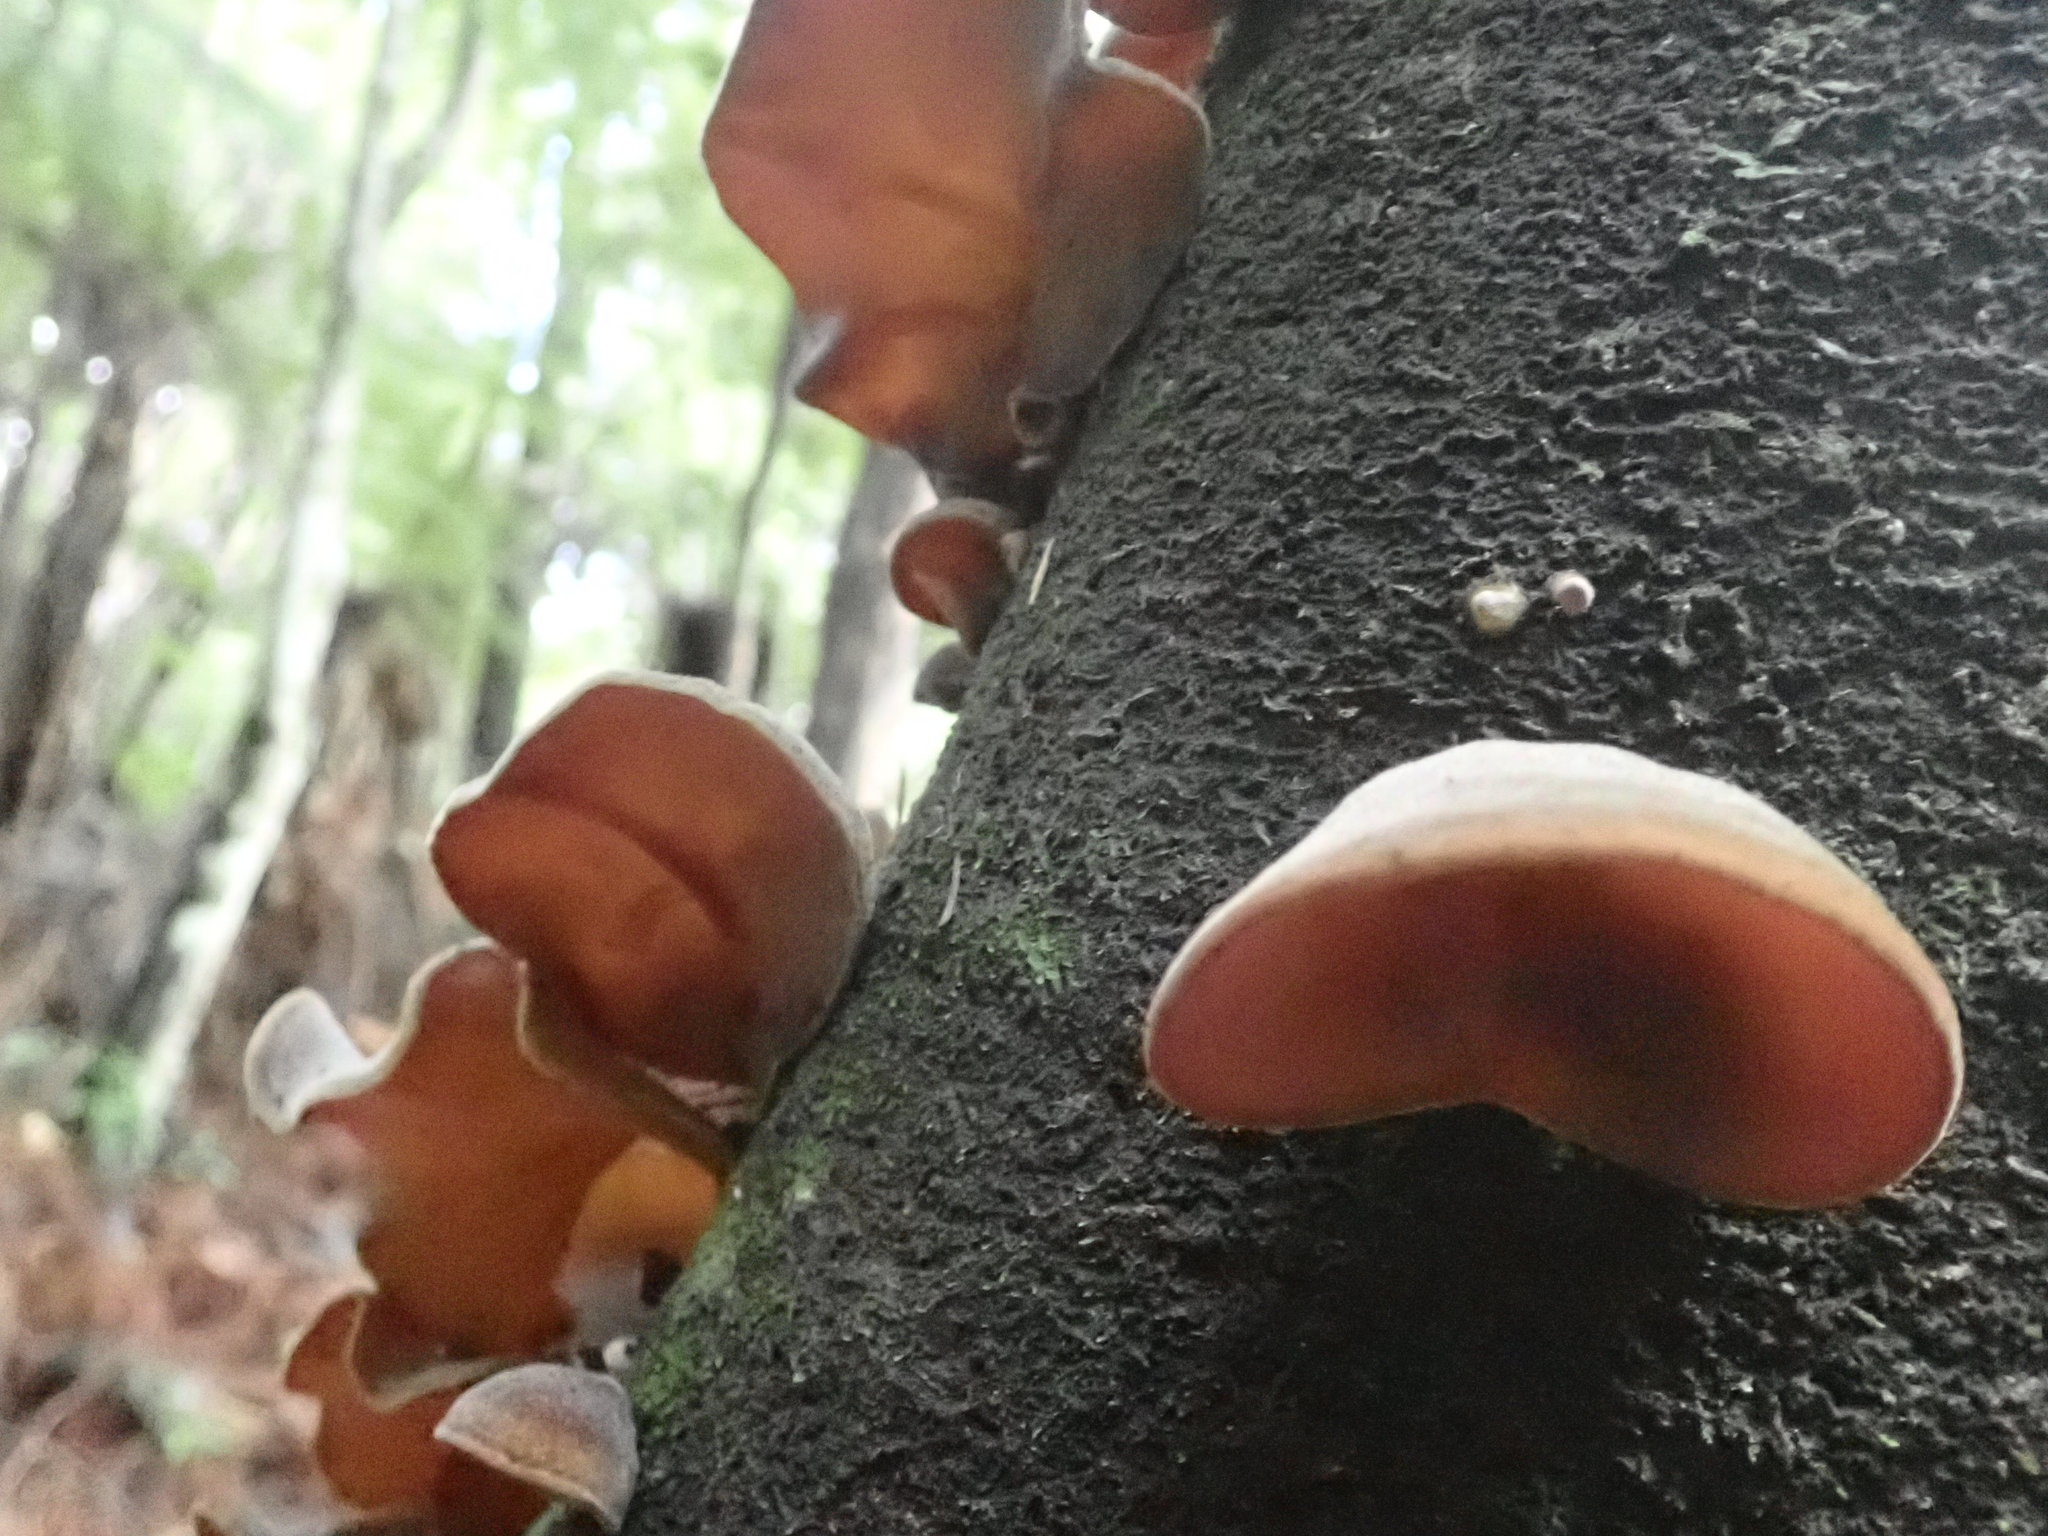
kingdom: Fungi
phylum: Basidiomycota
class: Agaricomycetes
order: Auriculariales
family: Auriculariaceae
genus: Auricularia
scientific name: Auricularia cornea
